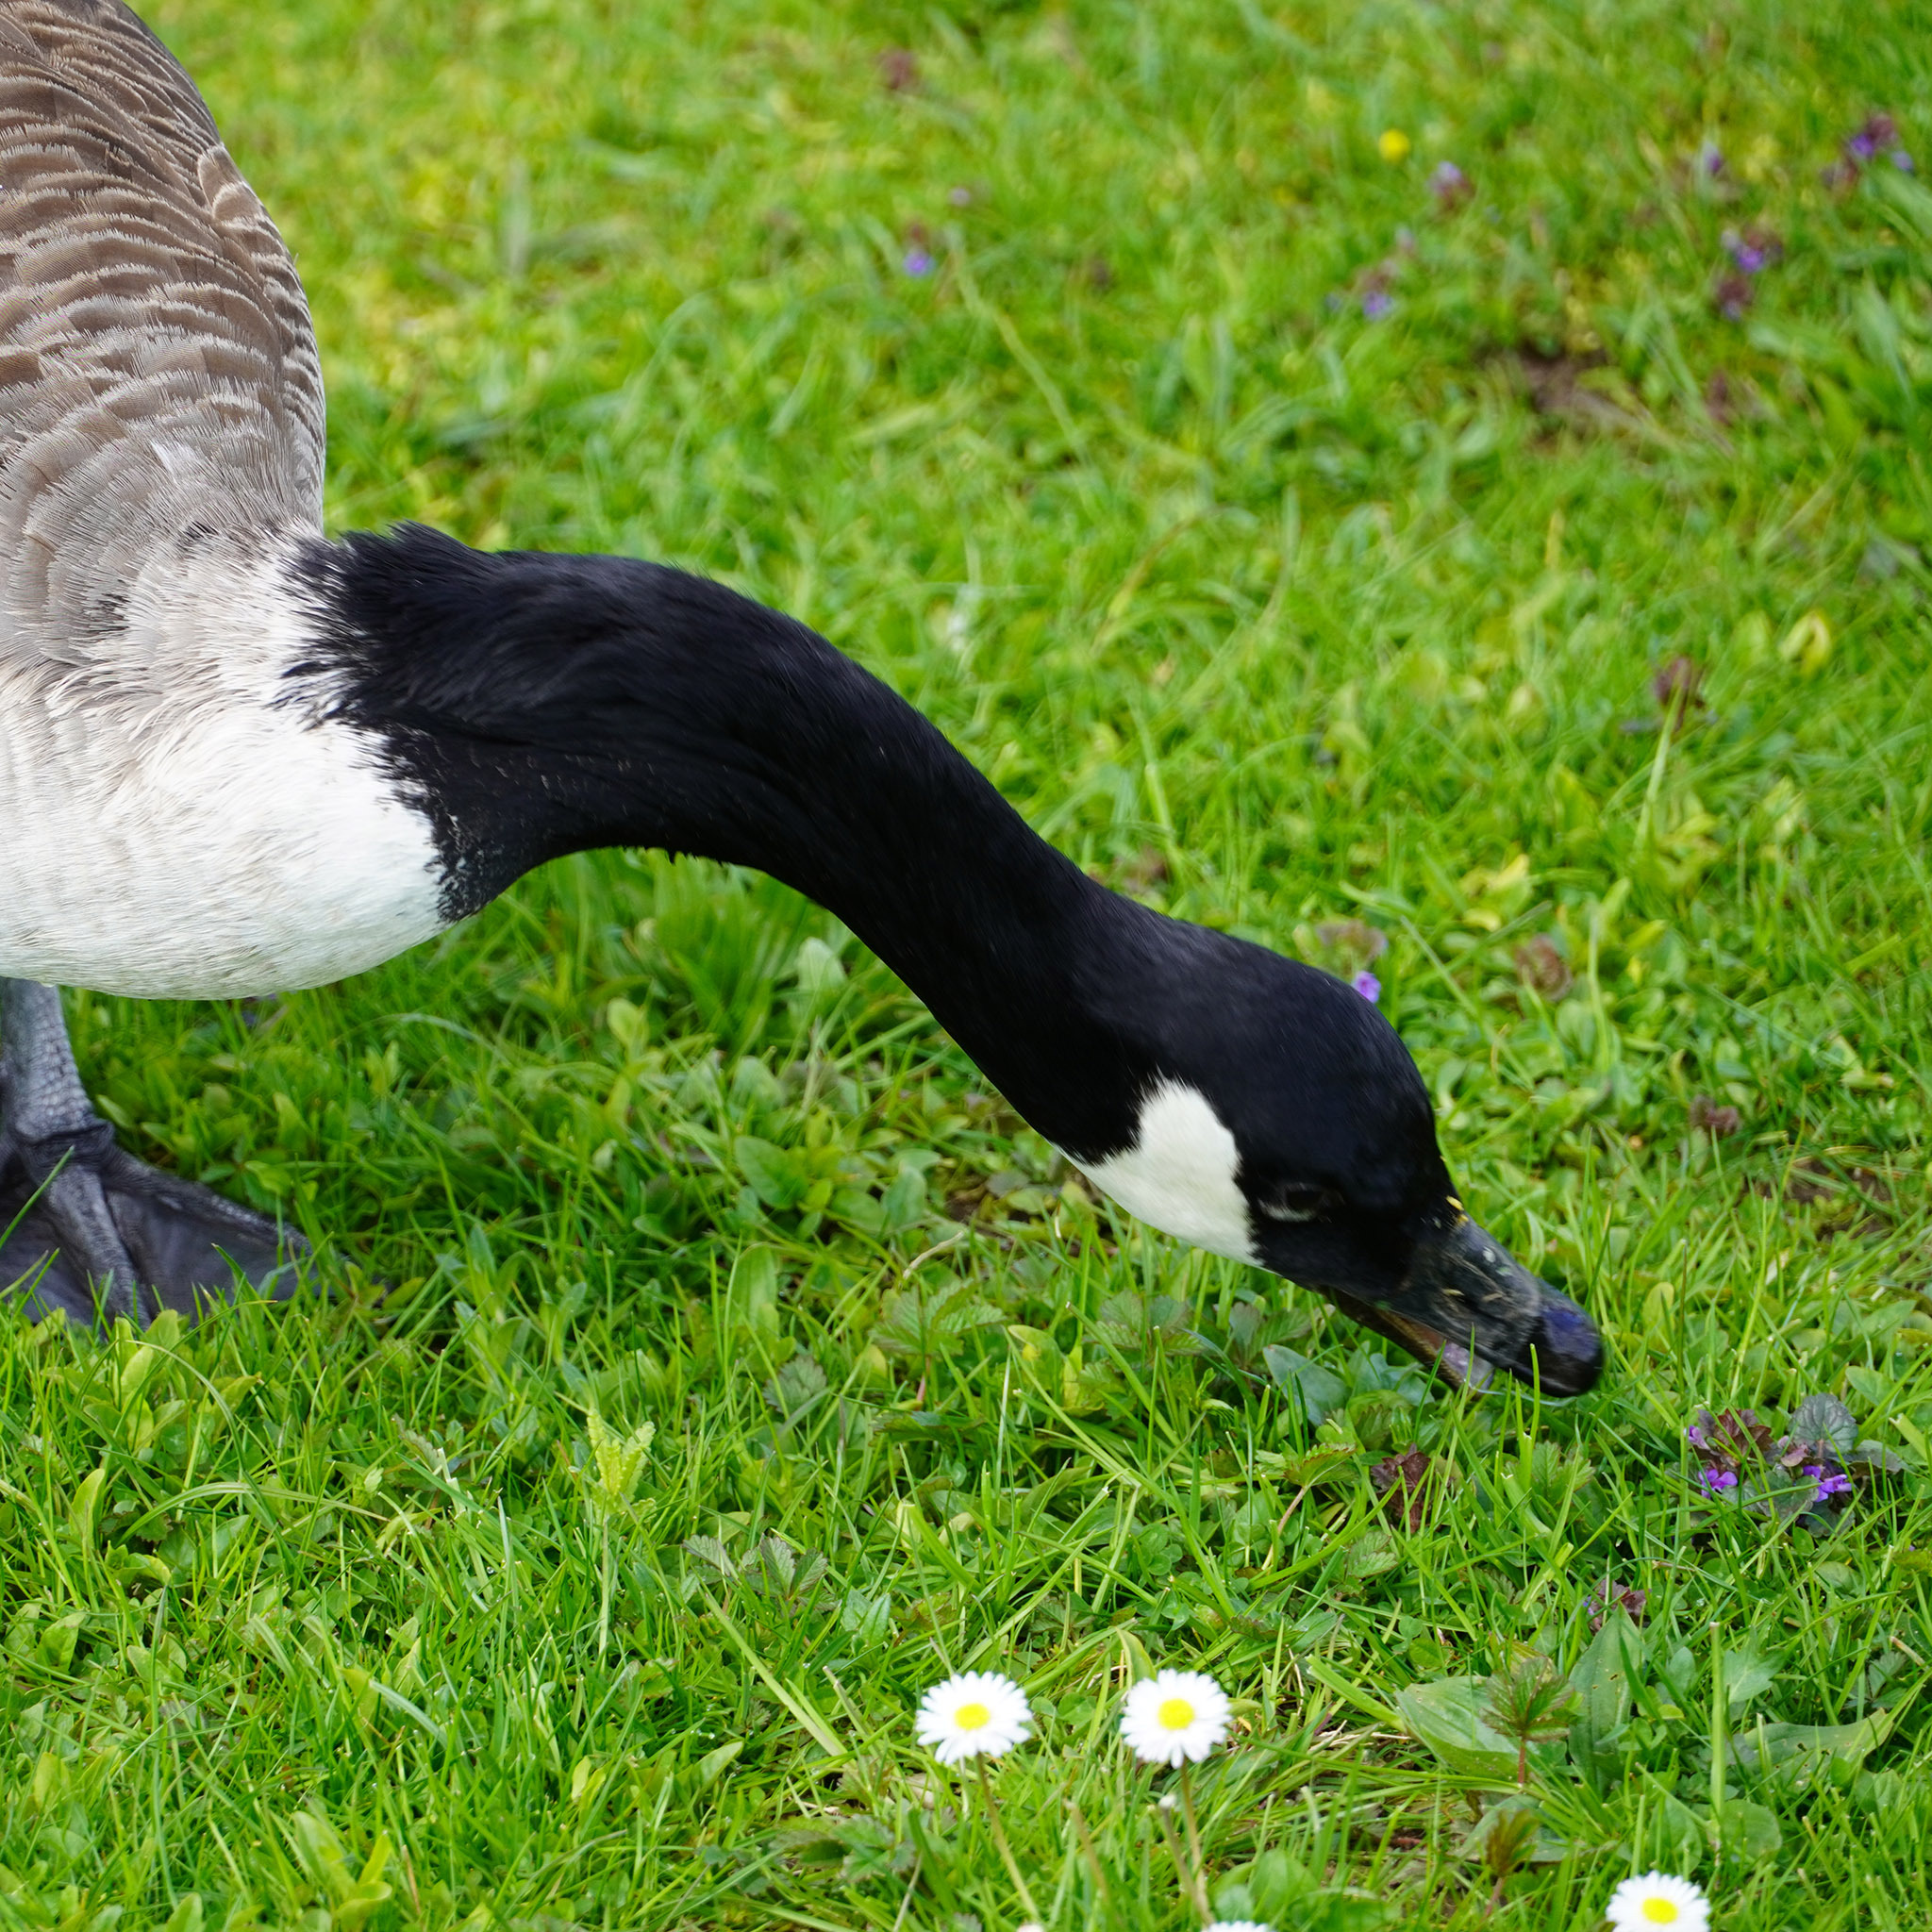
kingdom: Animalia
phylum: Chordata
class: Aves
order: Anseriformes
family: Anatidae
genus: Branta
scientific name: Branta canadensis
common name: Canada goose
